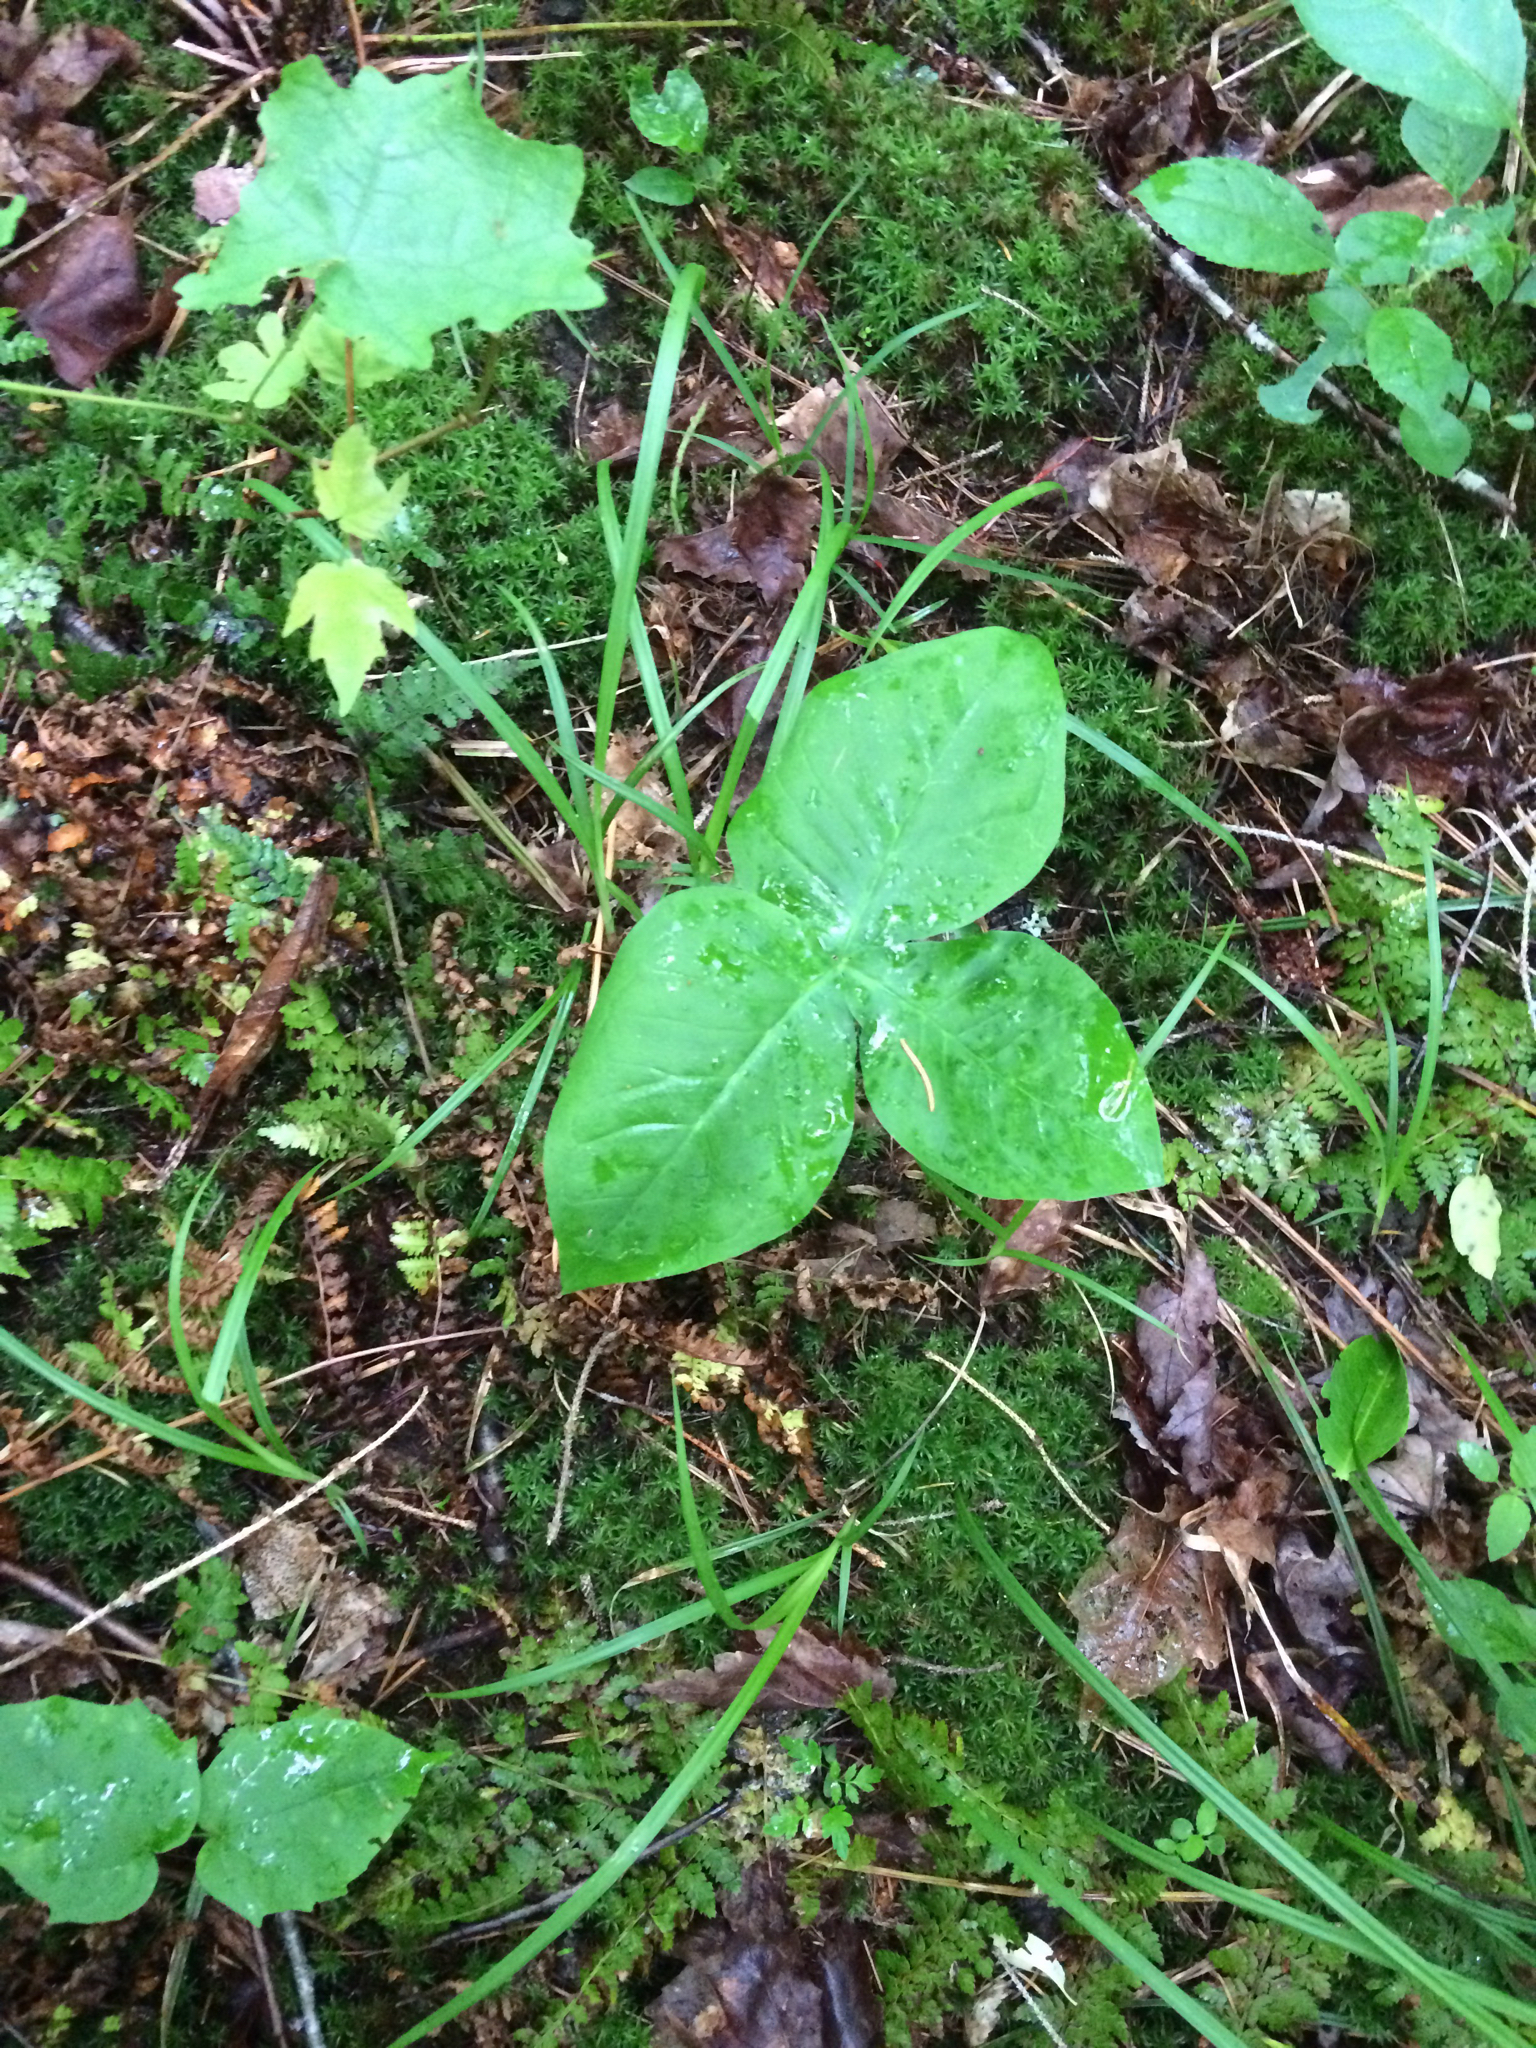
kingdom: Plantae
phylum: Tracheophyta
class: Liliopsida
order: Alismatales
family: Araceae
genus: Arisaema
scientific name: Arisaema triphyllum
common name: Jack-in-the-pulpit
